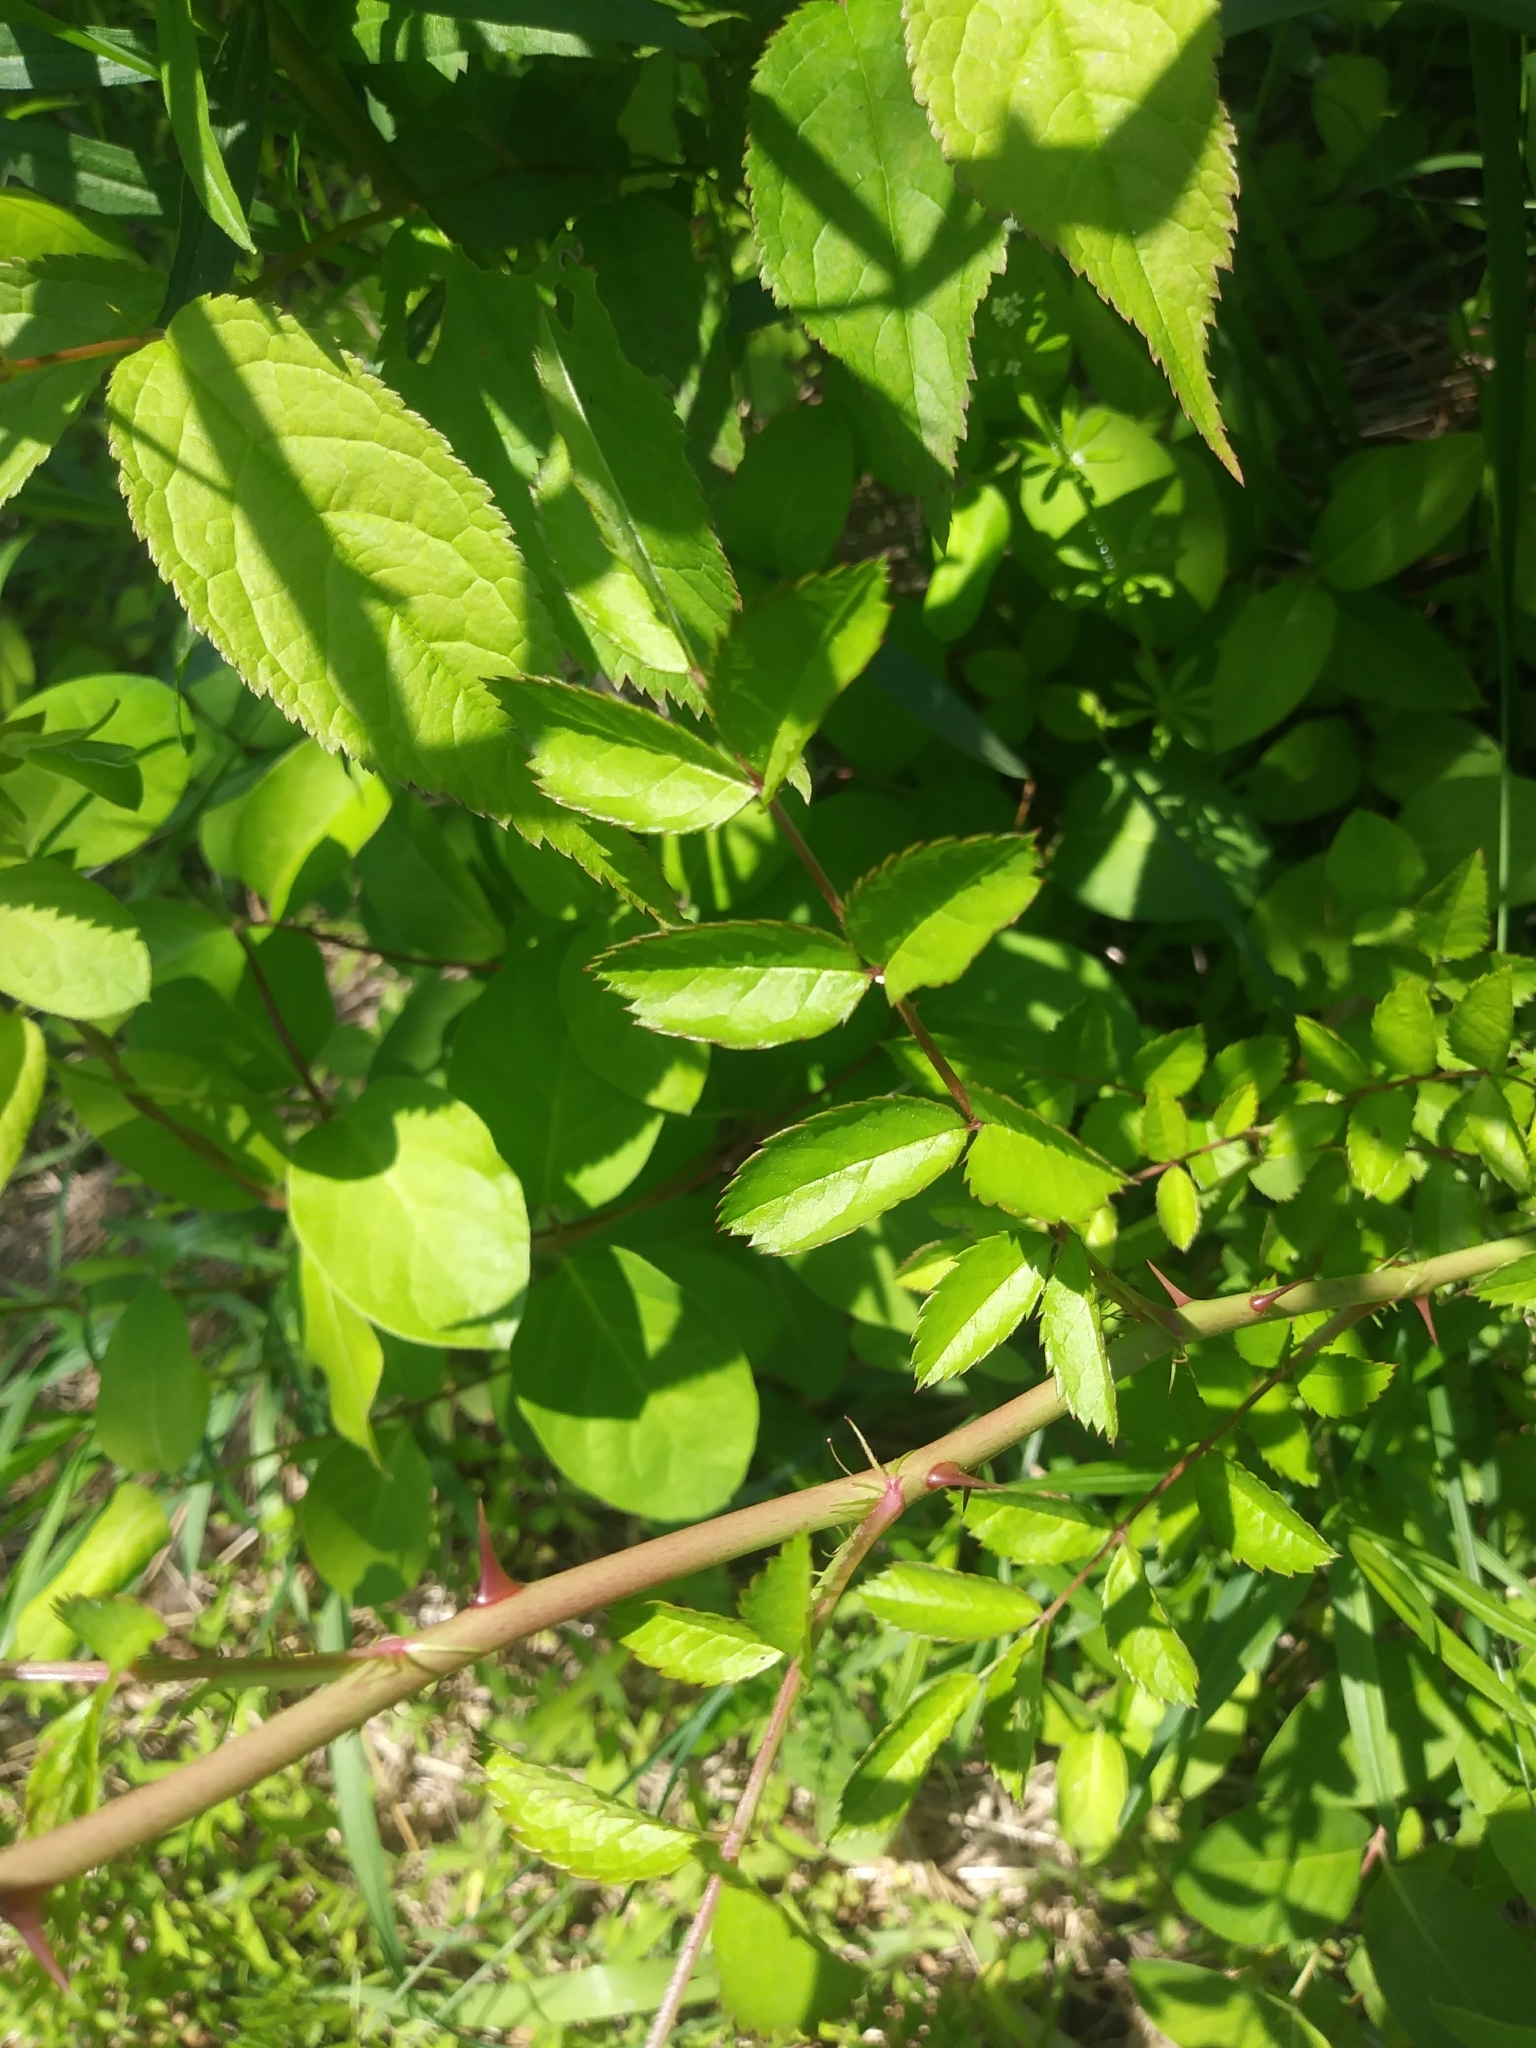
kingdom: Plantae
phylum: Tracheophyta
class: Magnoliopsida
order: Rosales
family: Rosaceae
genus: Rosa
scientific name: Rosa multiflora
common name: Multiflora rose
